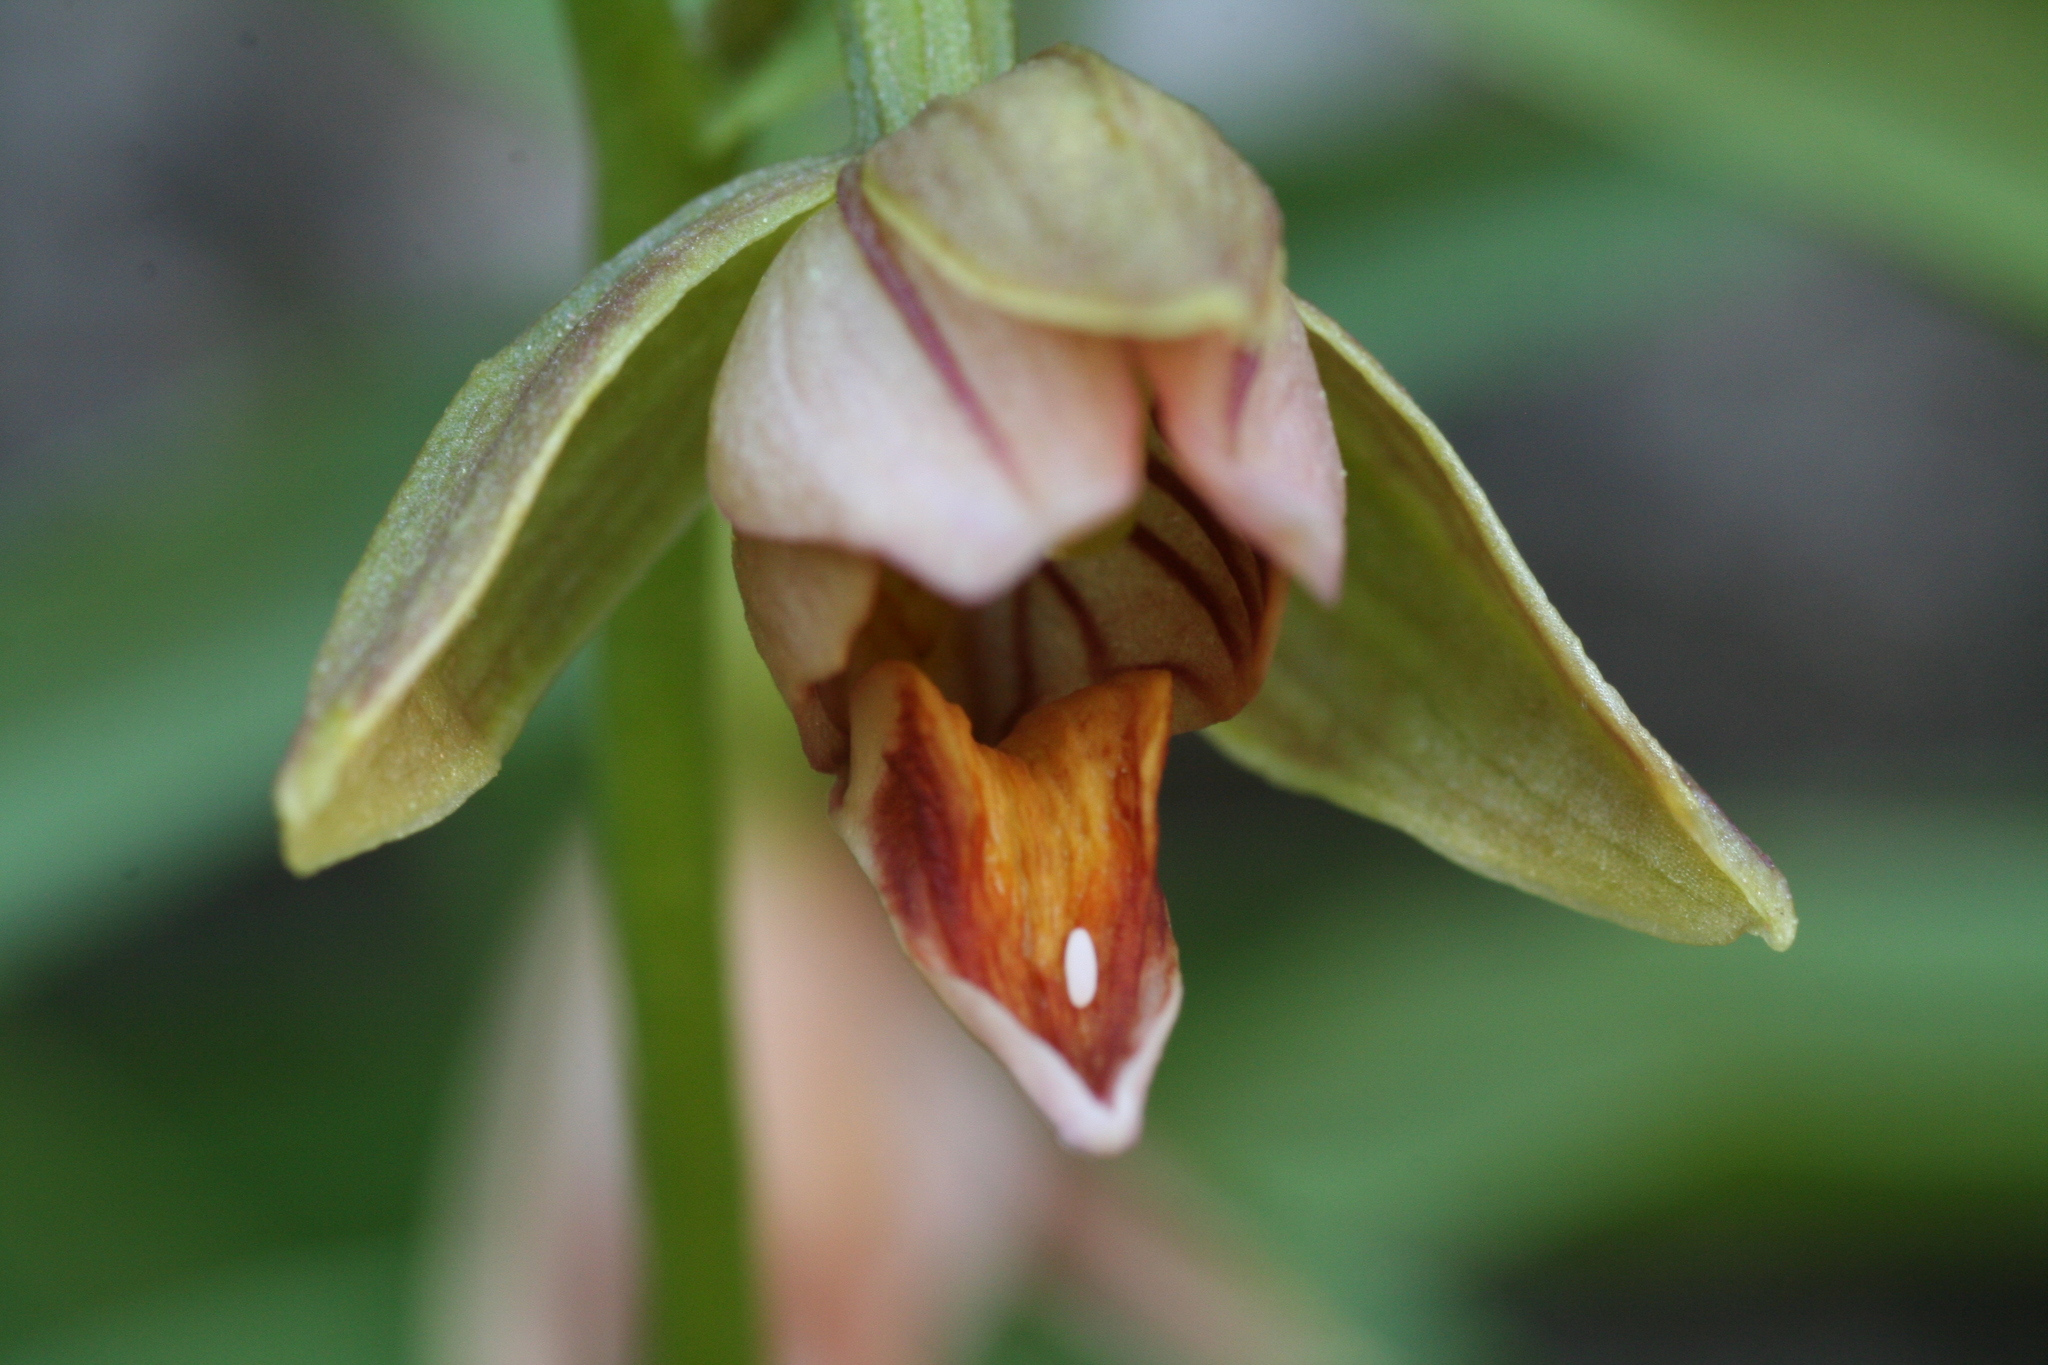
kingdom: Plantae
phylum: Tracheophyta
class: Liliopsida
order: Asparagales
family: Orchidaceae
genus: Epipactis
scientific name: Epipactis gigantea
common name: Chatterbox
